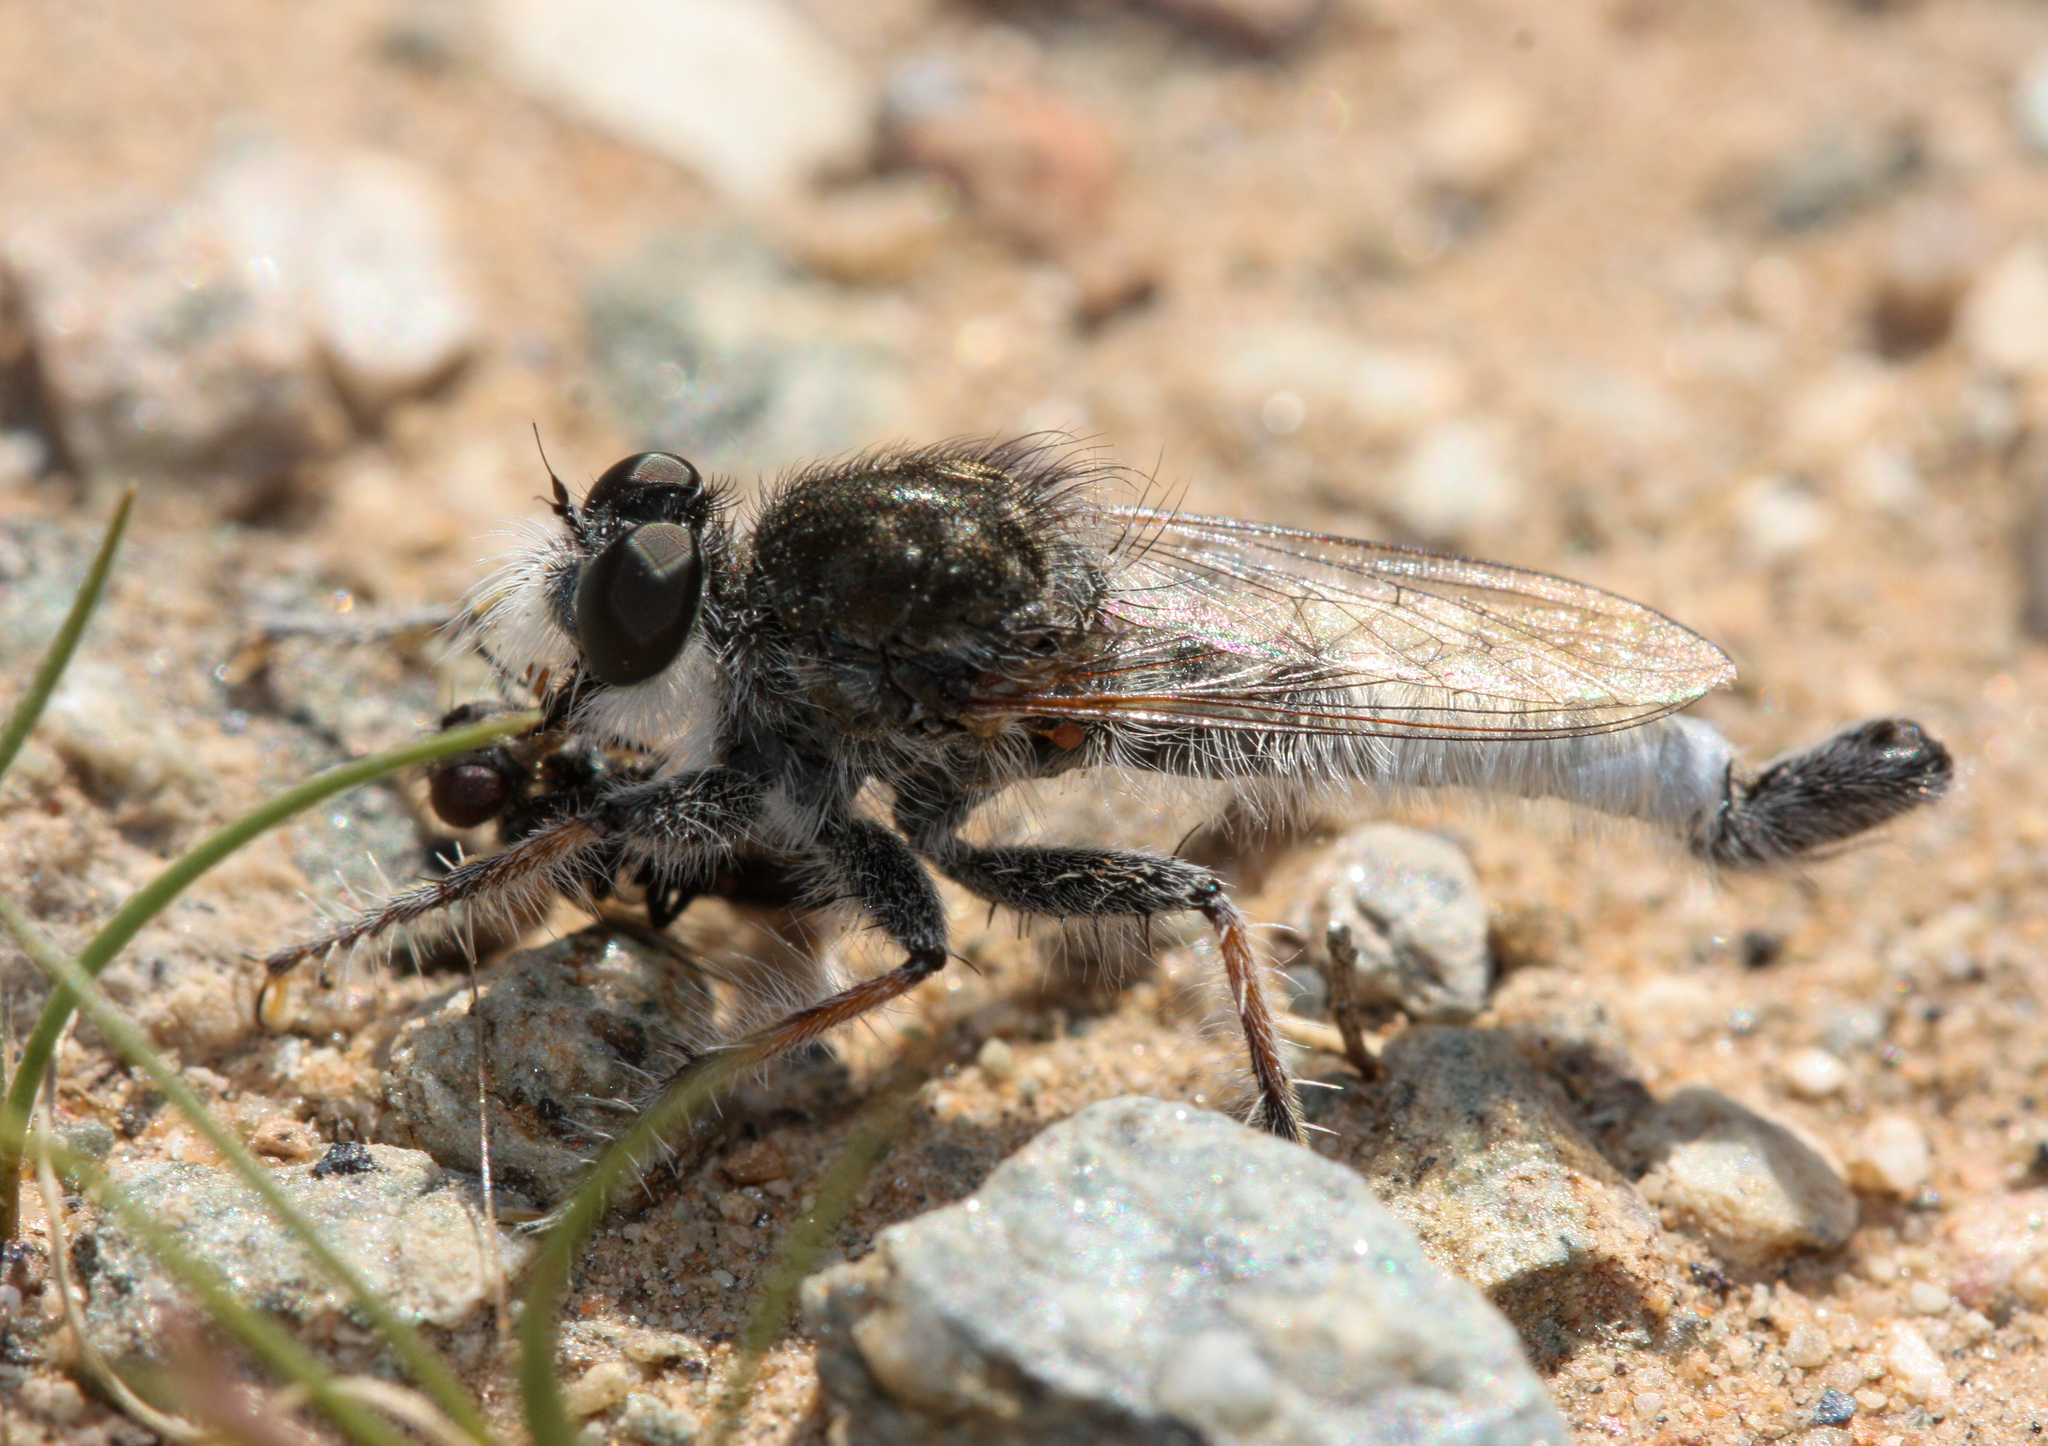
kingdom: Animalia
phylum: Arthropoda
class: Insecta
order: Diptera
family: Asilidae
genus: Efferia
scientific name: Efferia
